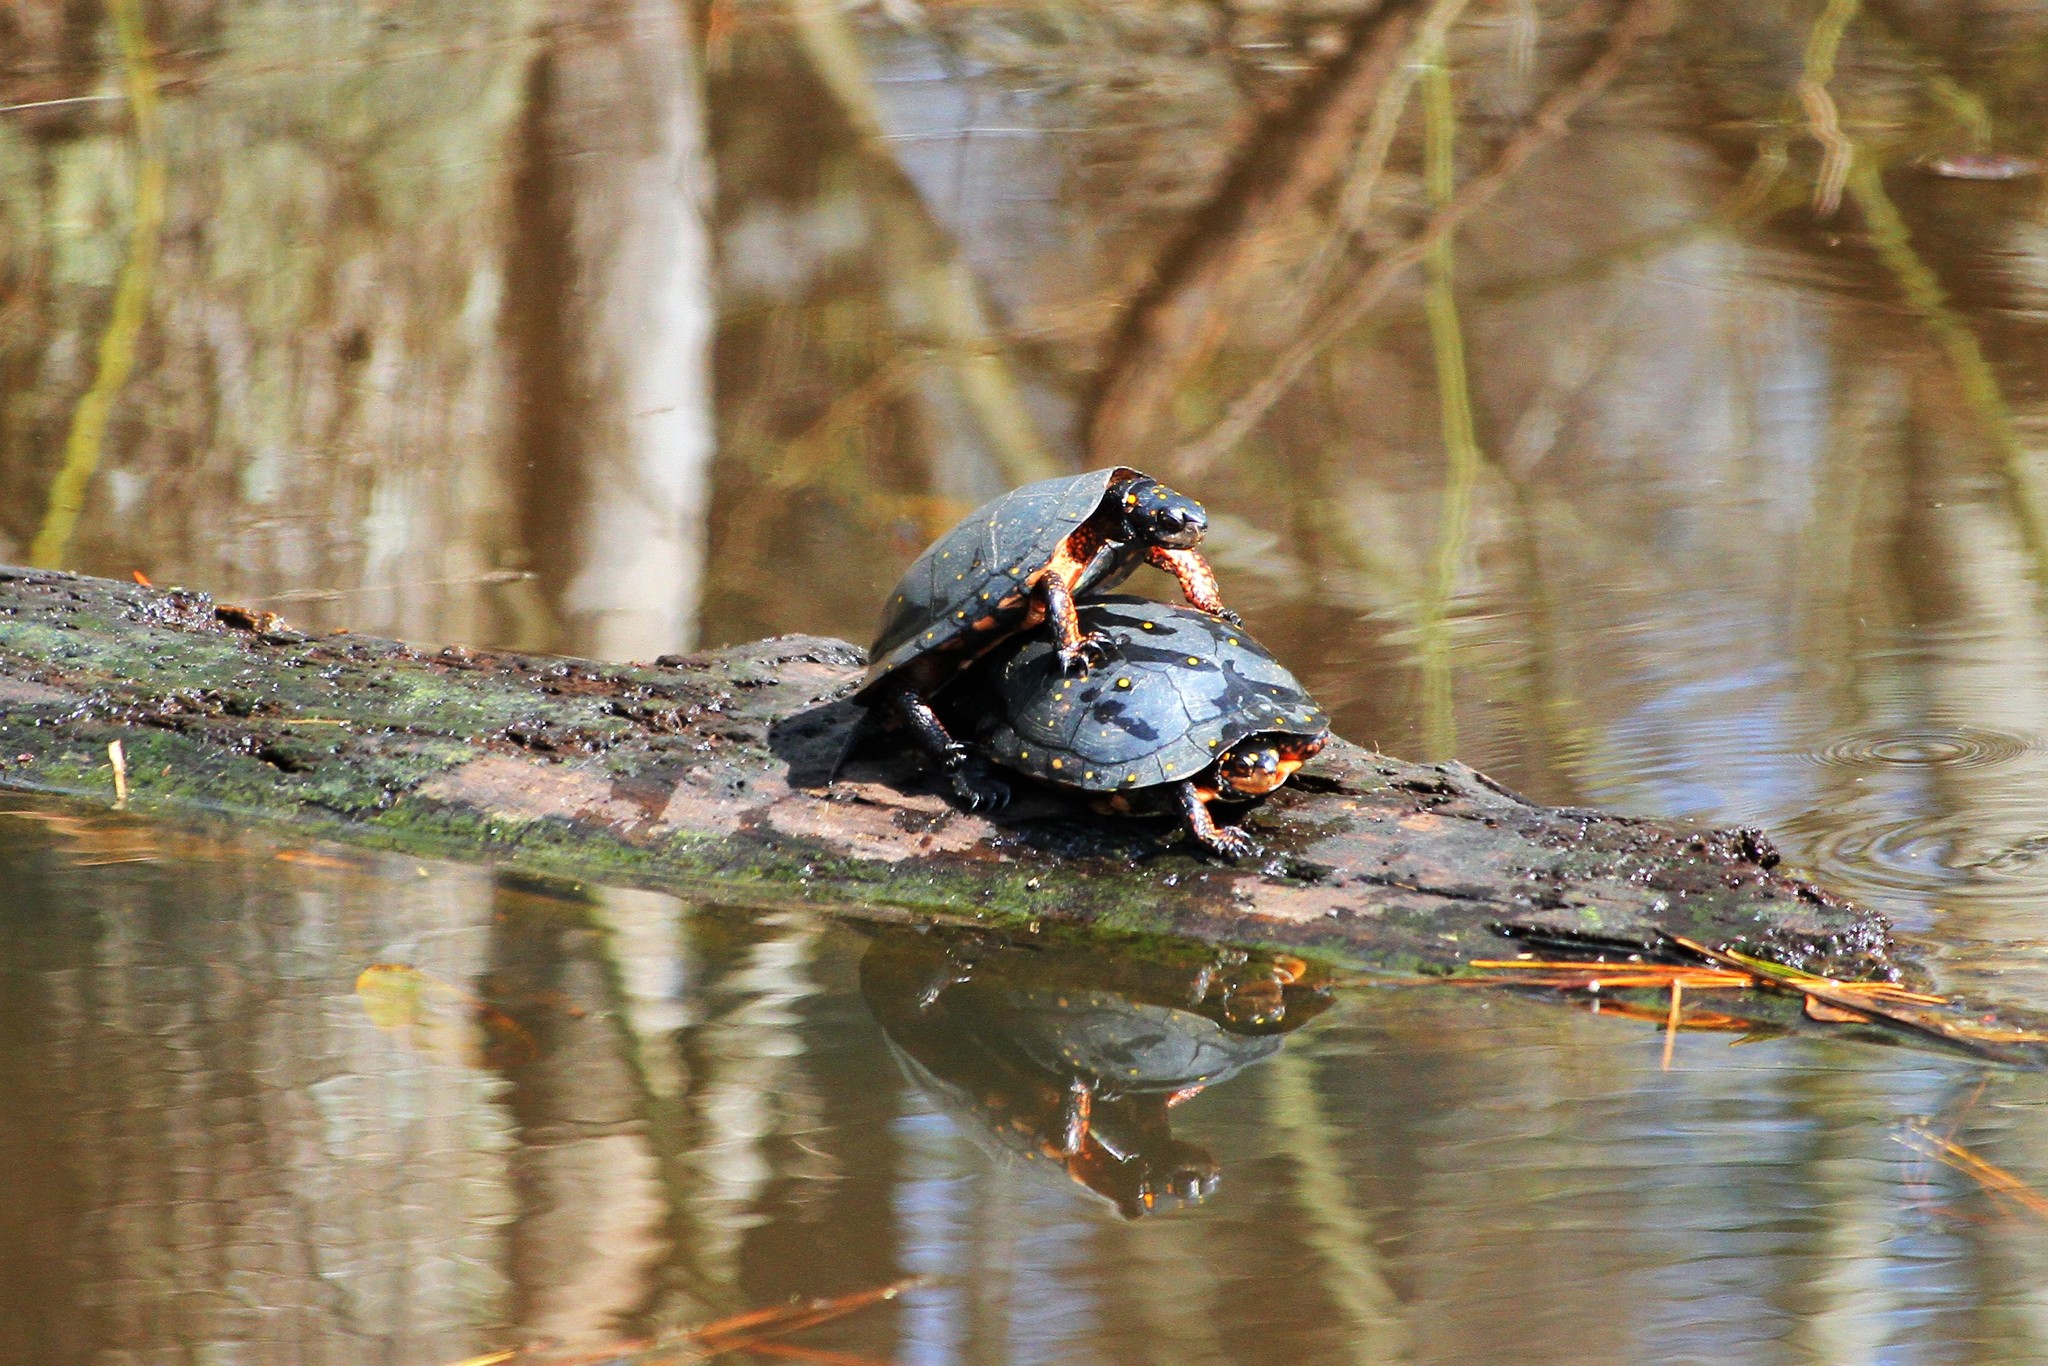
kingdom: Animalia
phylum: Chordata
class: Testudines
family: Emydidae
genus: Clemmys
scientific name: Clemmys guttata
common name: Spotted turtle
